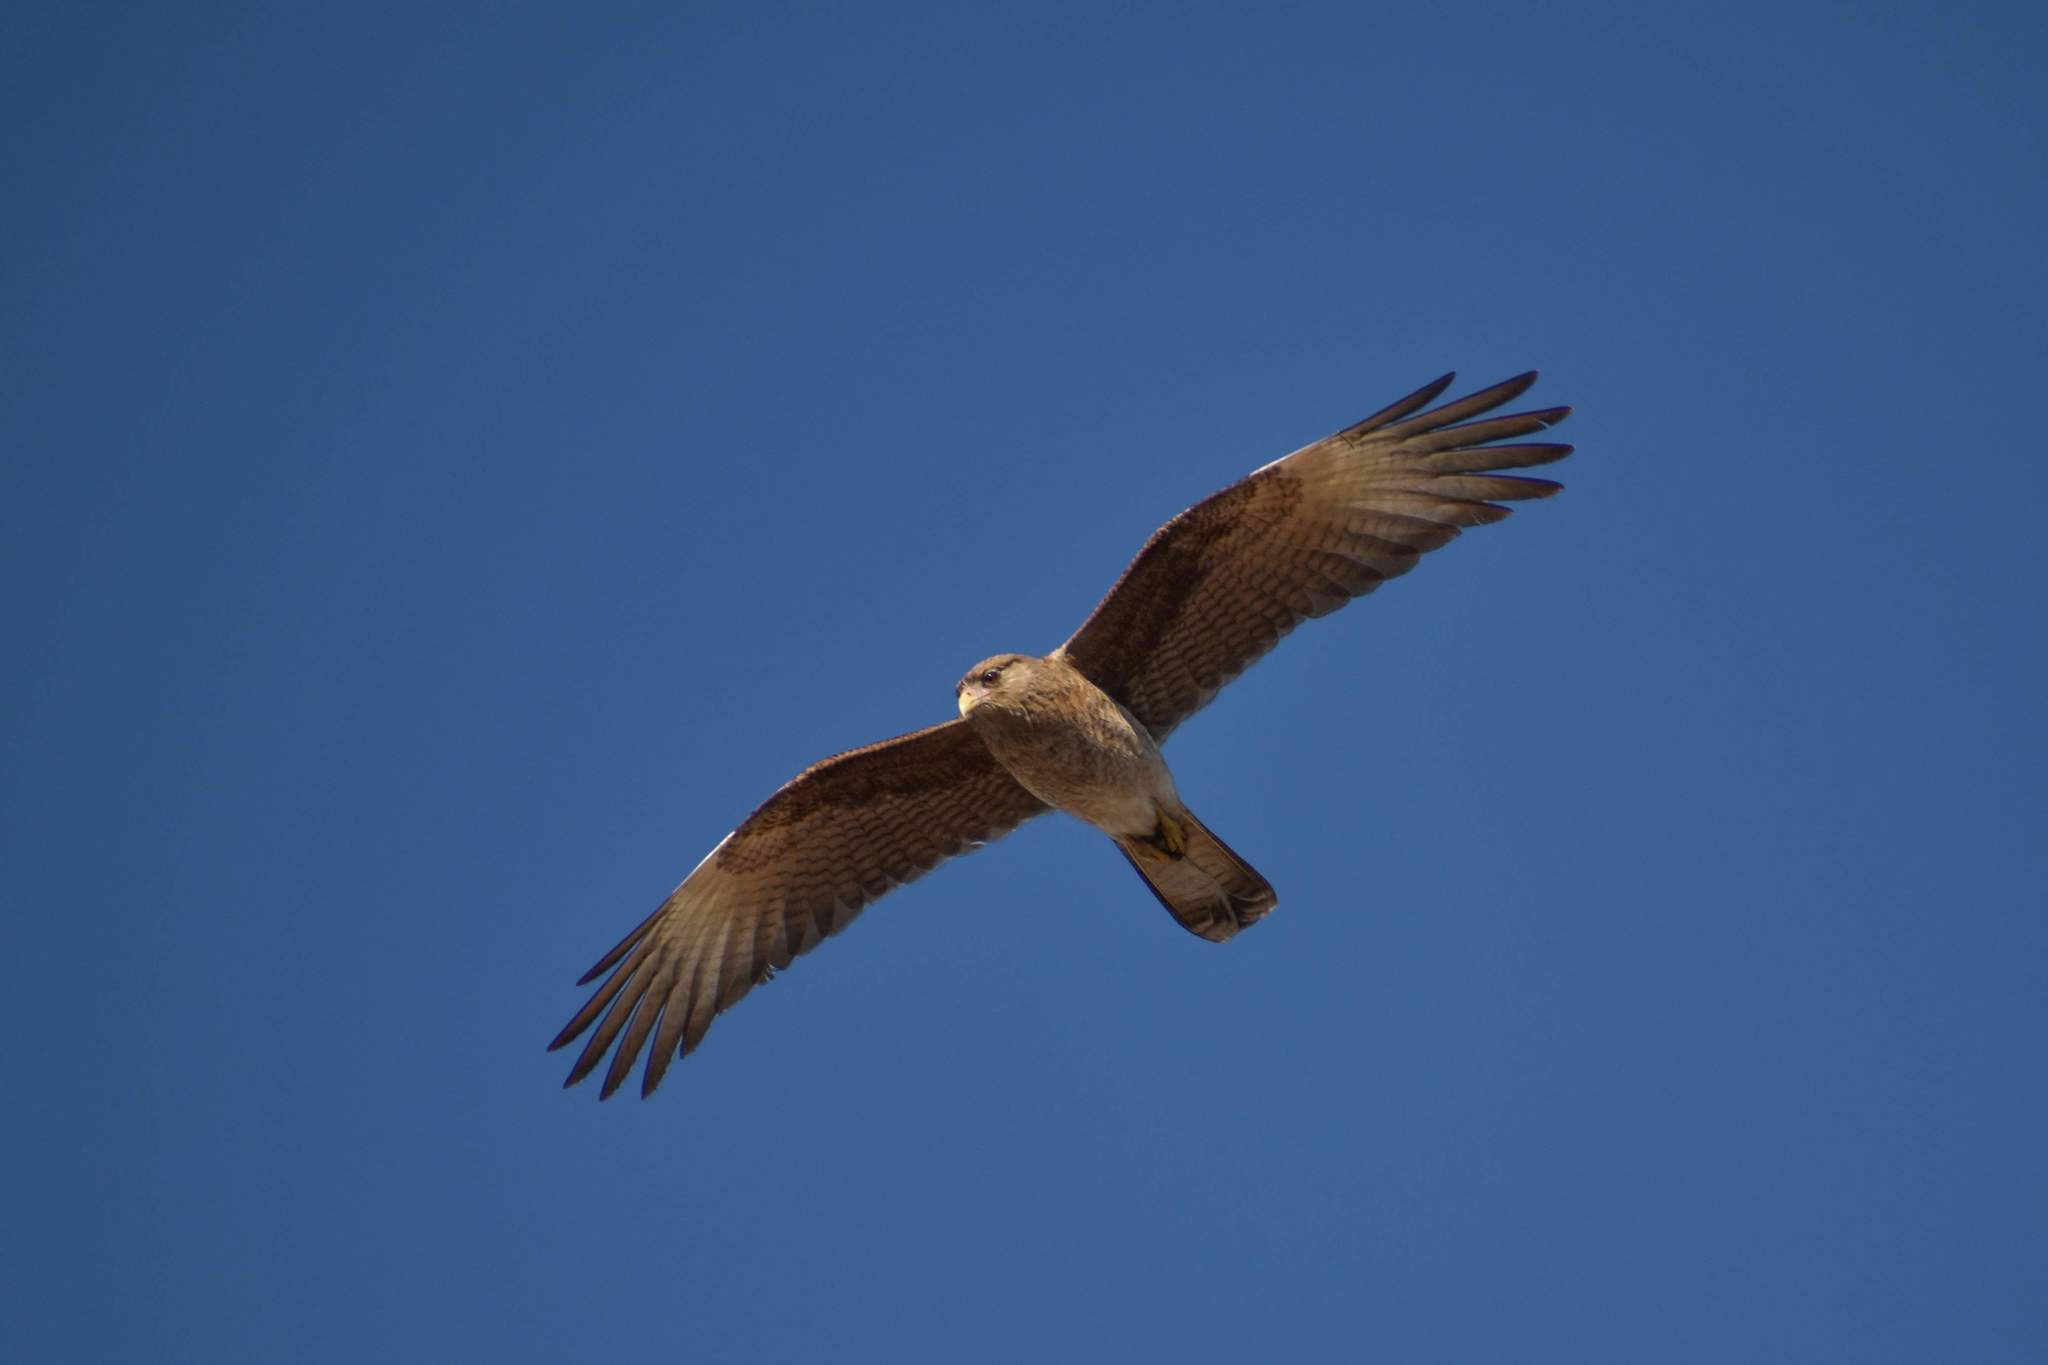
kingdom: Animalia
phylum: Chordata
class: Aves
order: Falconiformes
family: Falconidae
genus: Daptrius
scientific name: Daptrius
